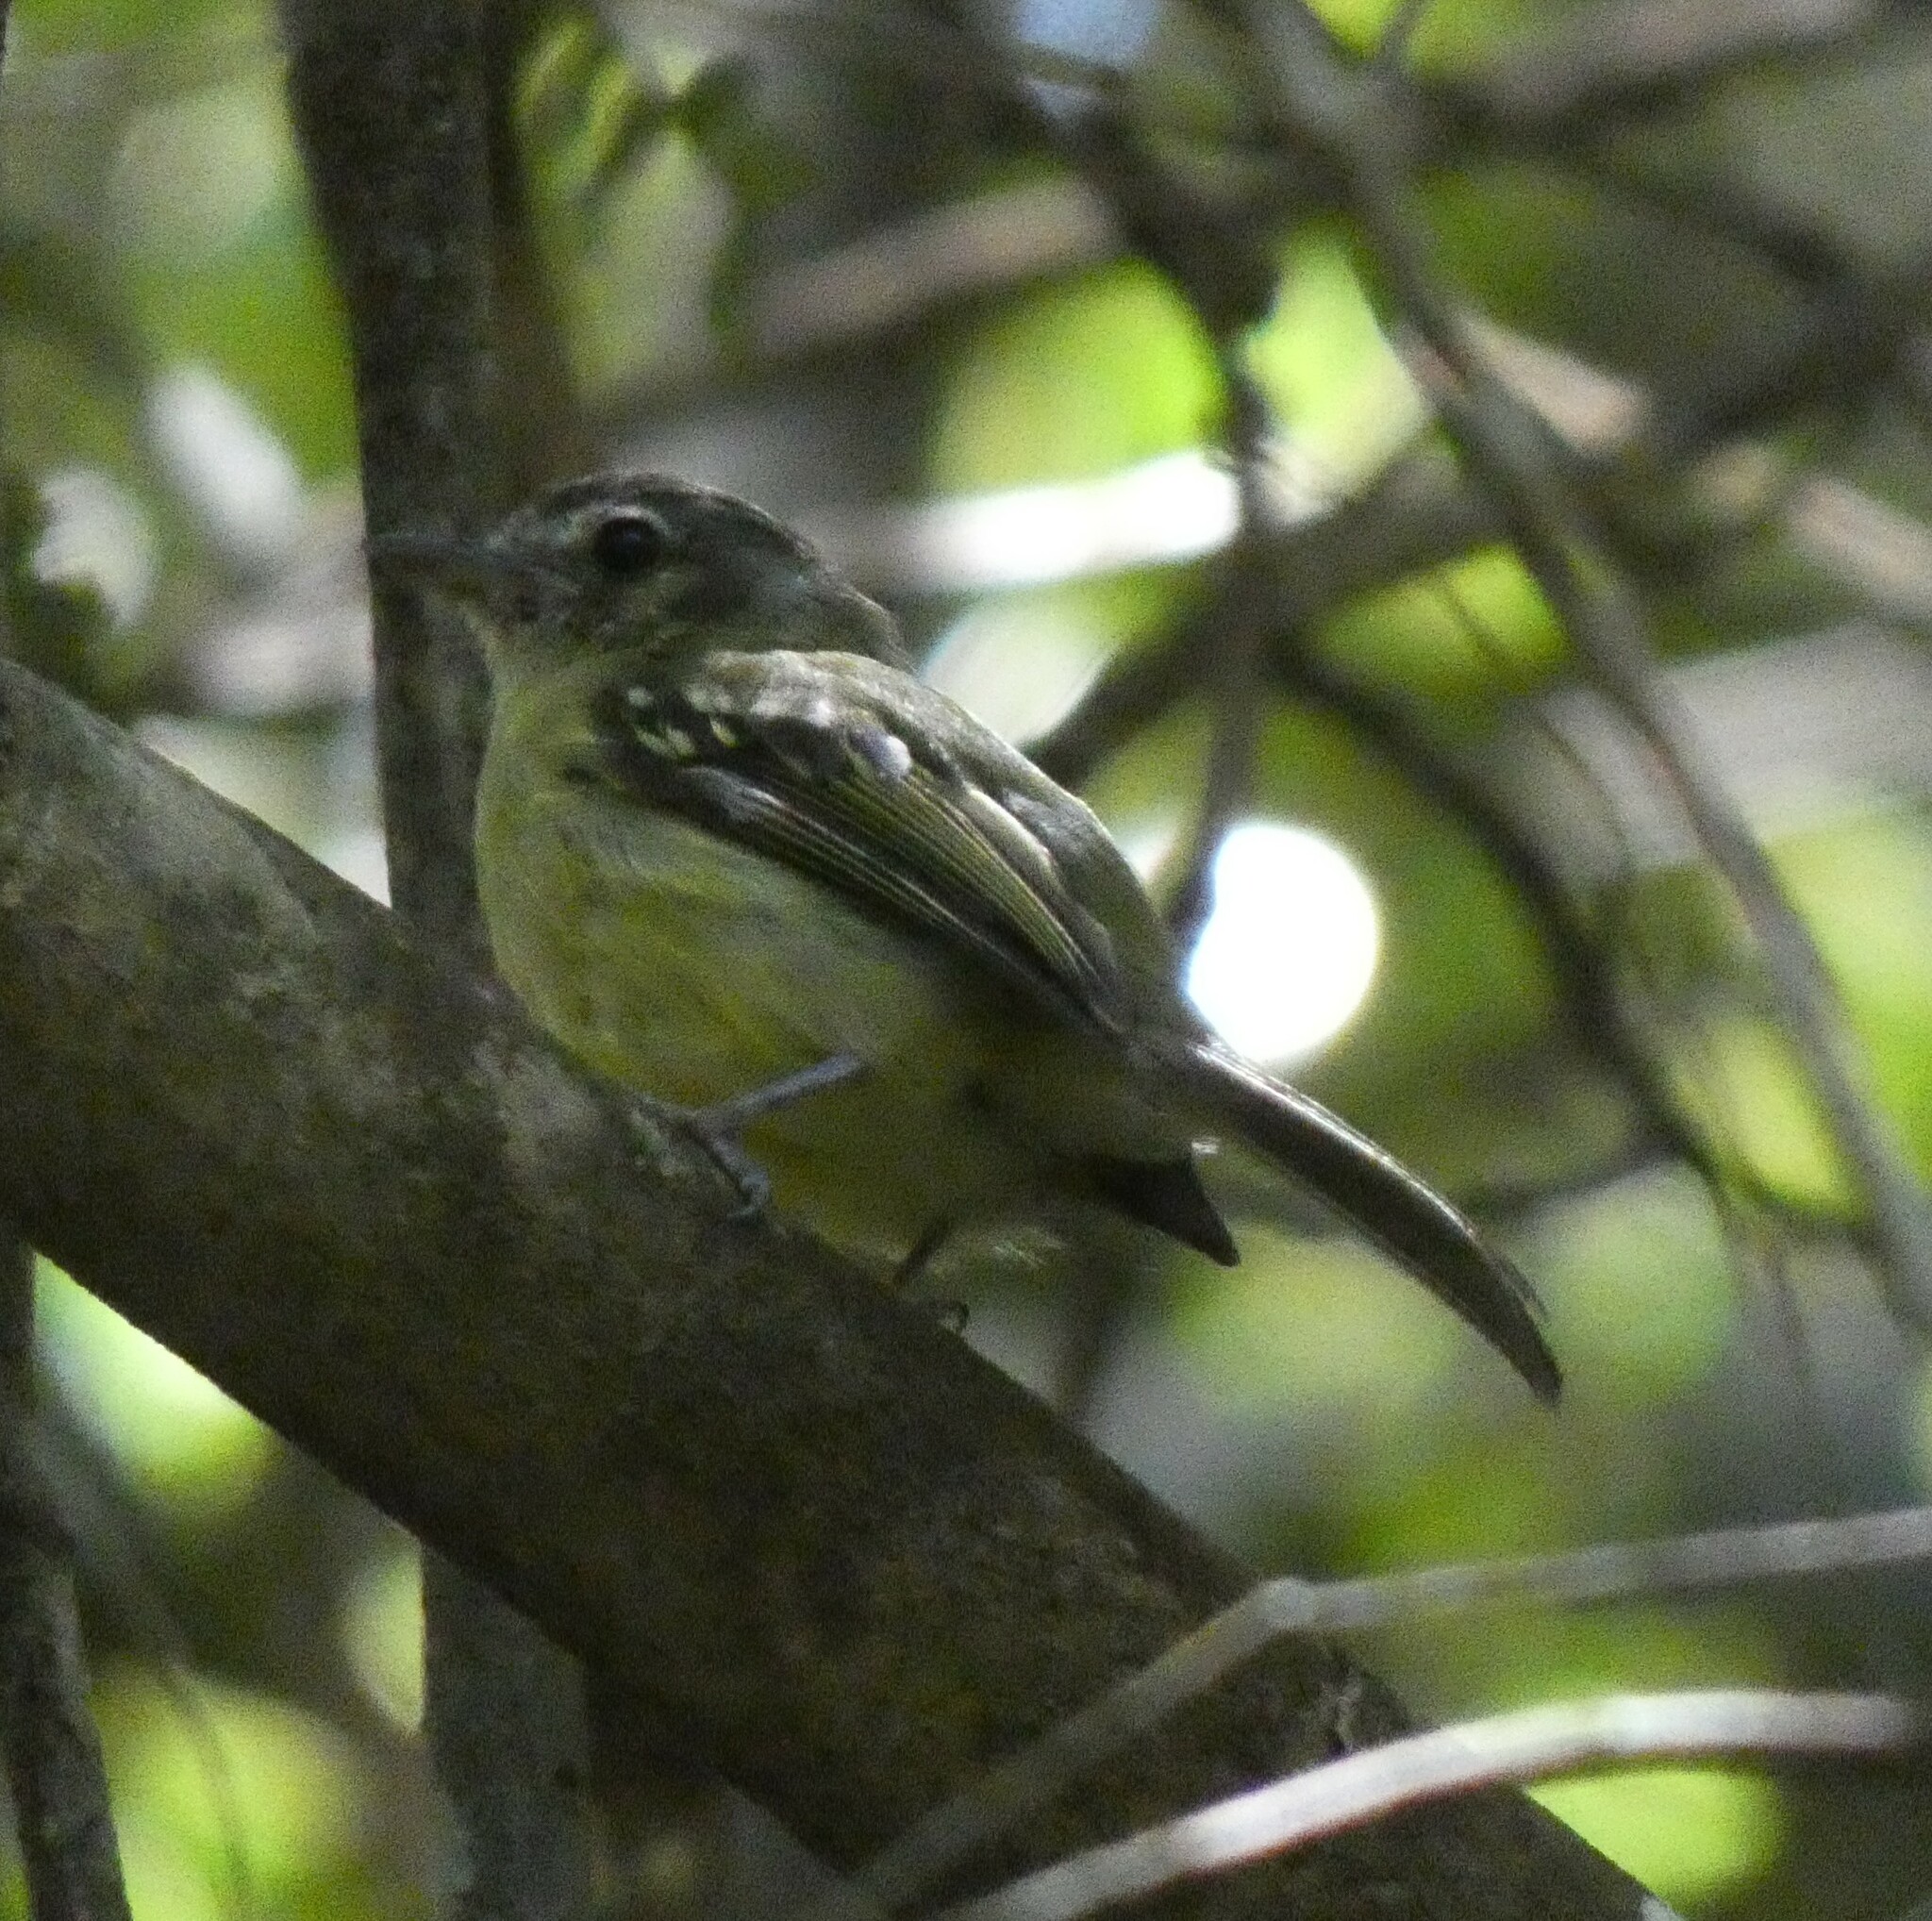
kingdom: Animalia
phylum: Chordata
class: Aves
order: Passeriformes
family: Tyrannidae
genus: Tolmomyias
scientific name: Tolmomyias sulphurescens
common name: Yellow-olive flycatcher
